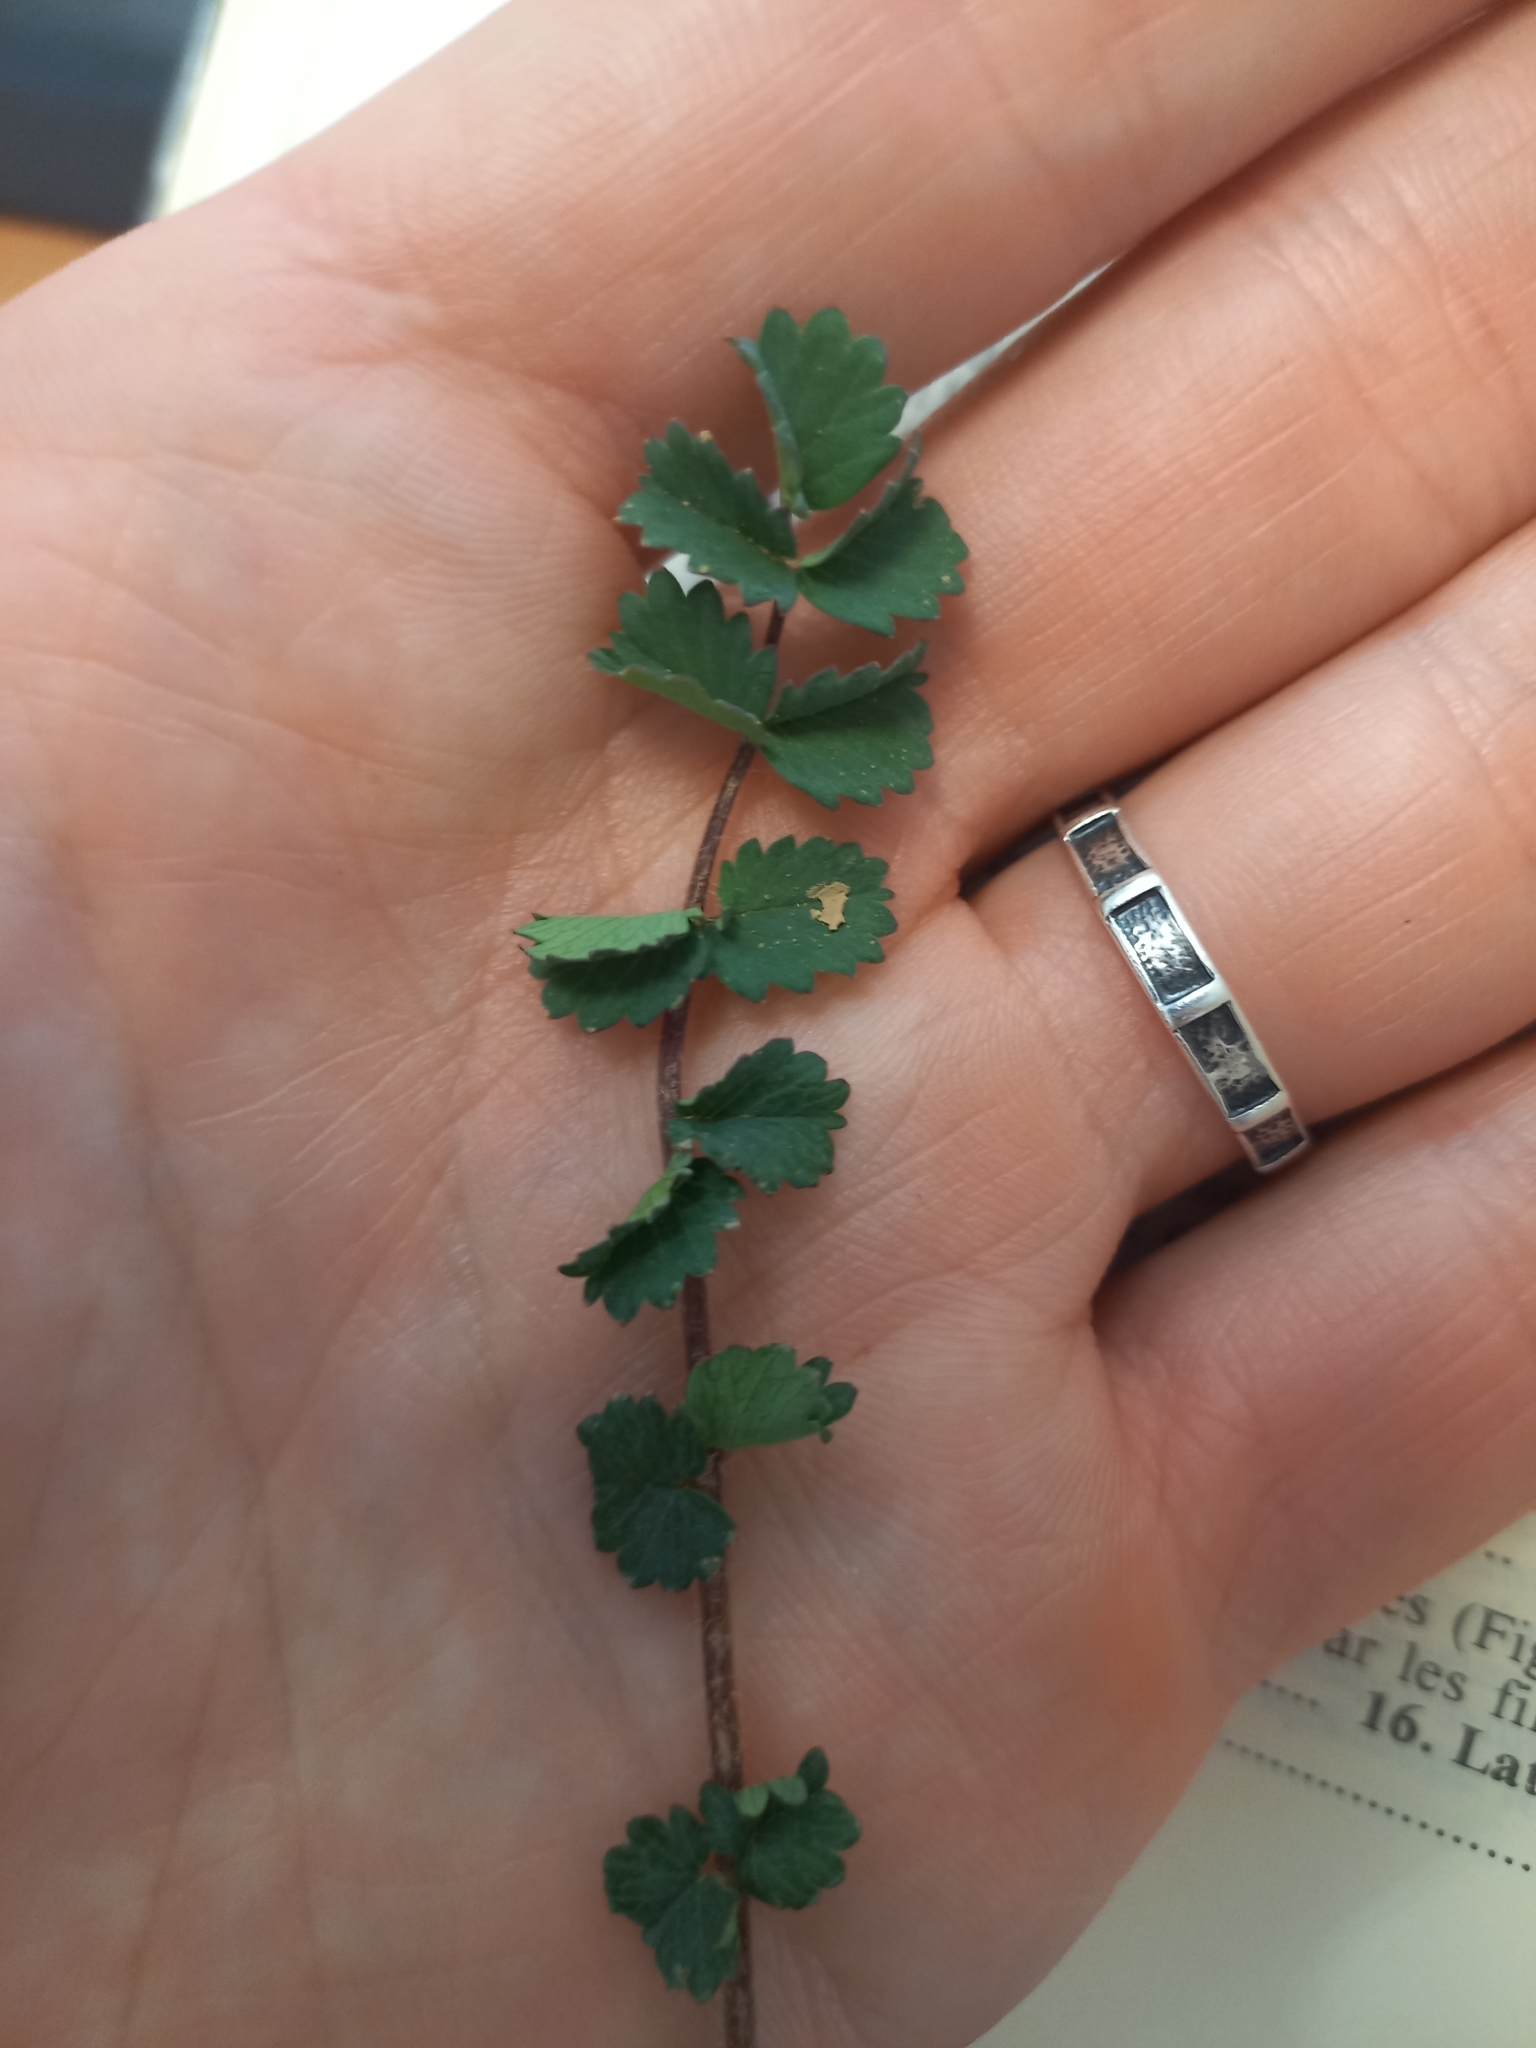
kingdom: Plantae
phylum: Tracheophyta
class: Magnoliopsida
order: Rosales
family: Rosaceae
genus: Poterium
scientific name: Poterium sanguisorba
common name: Salad burnet
